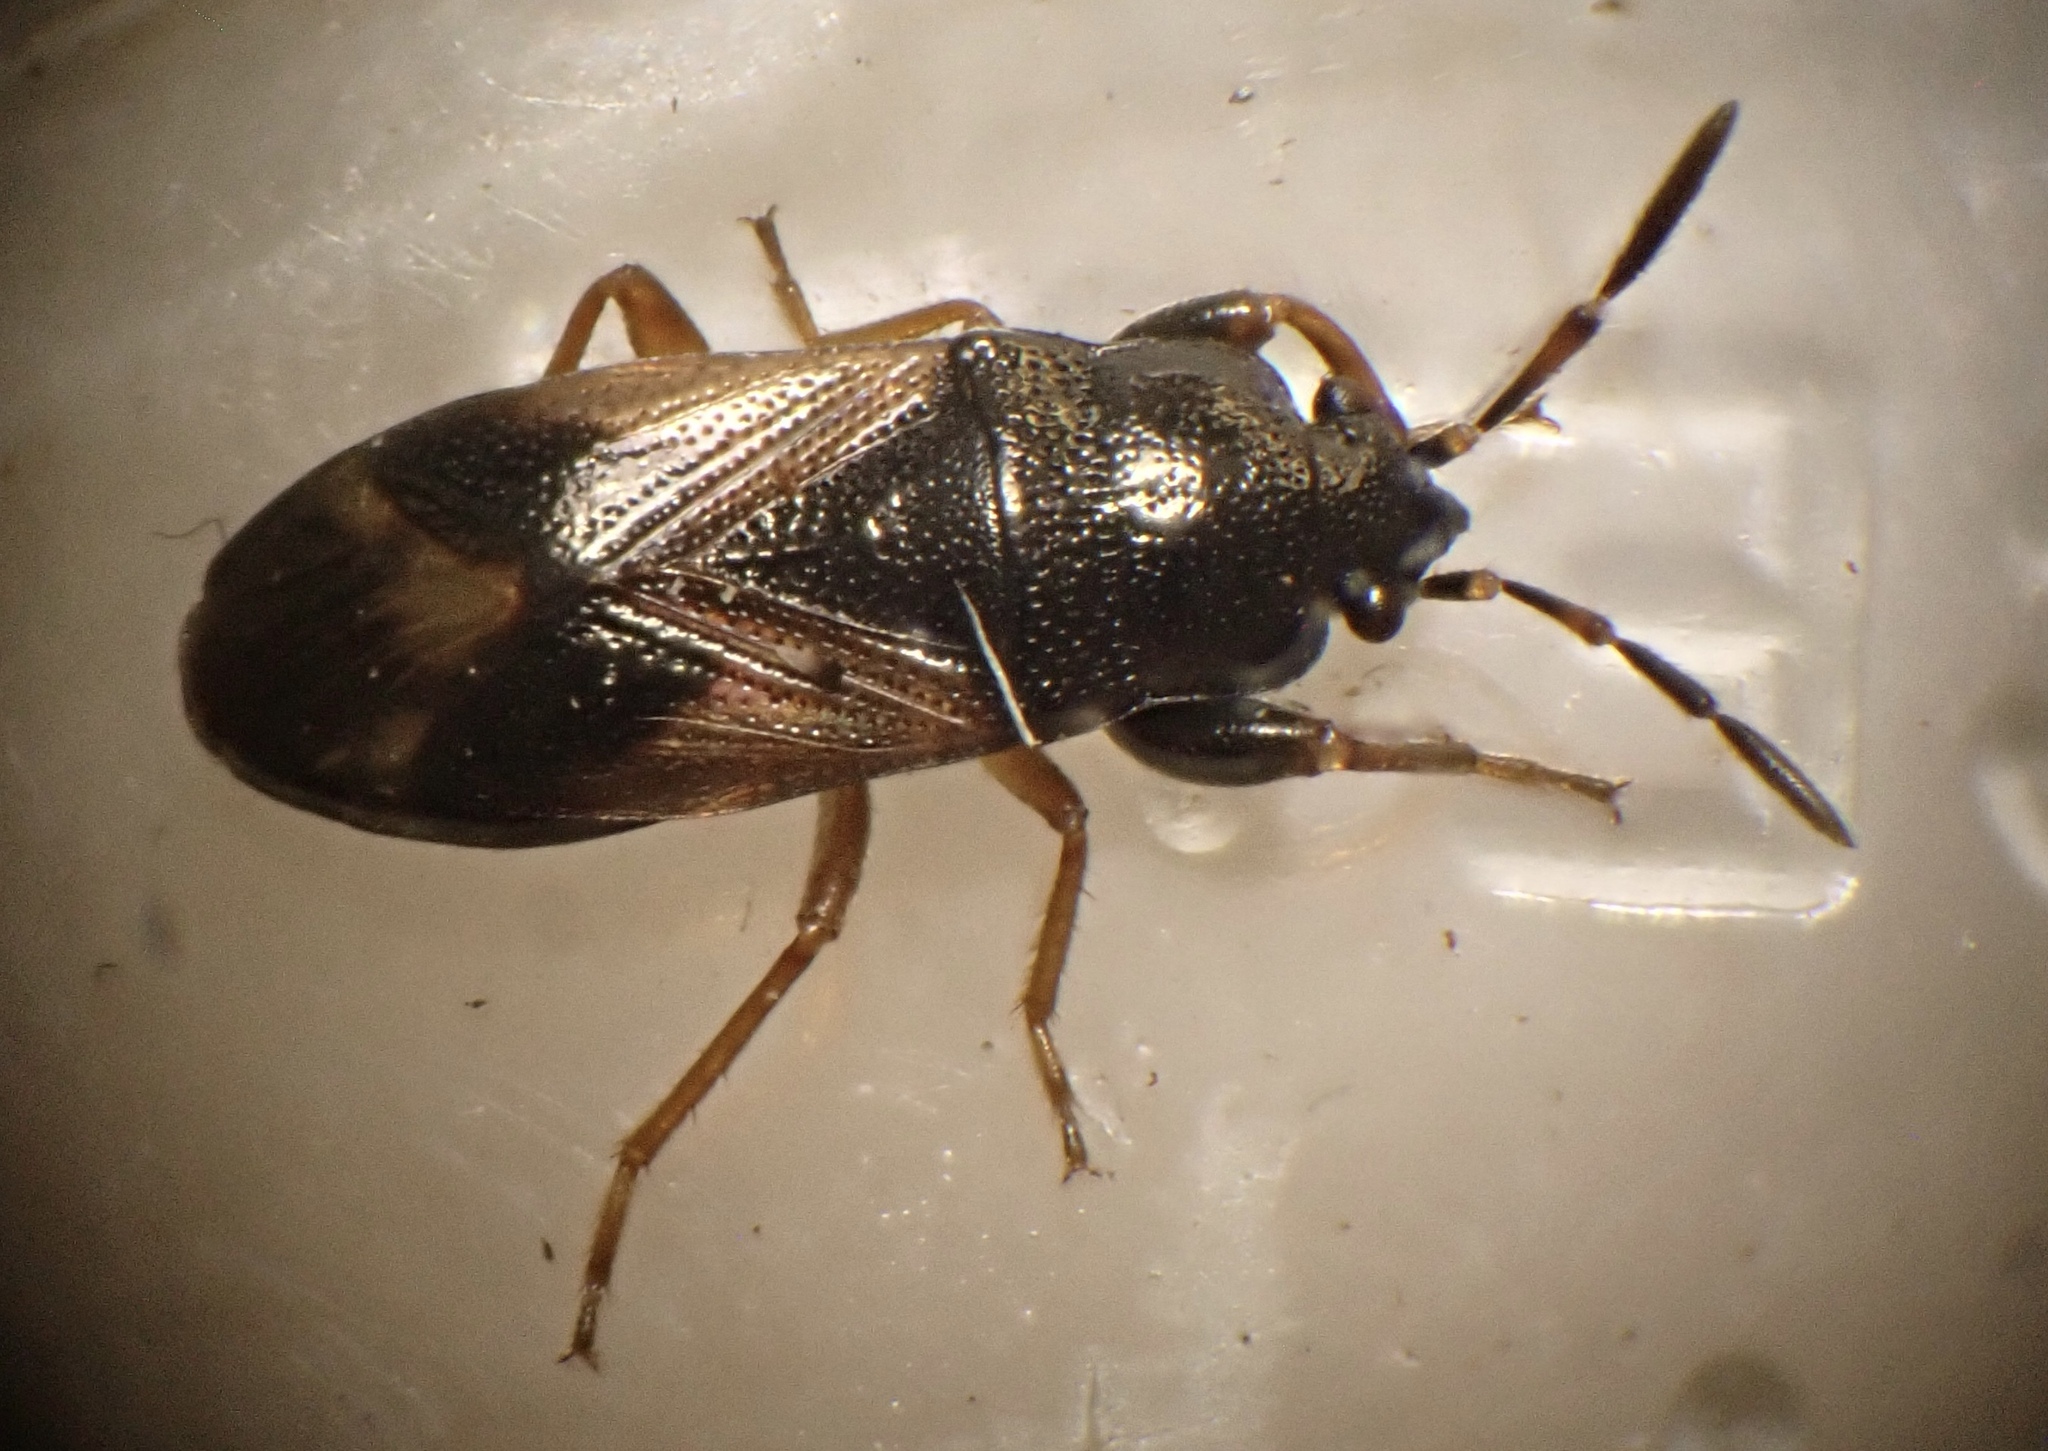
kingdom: Animalia
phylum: Arthropoda
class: Insecta
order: Hemiptera
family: Rhyparochromidae
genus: Megalonotus
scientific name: Megalonotus praetextatus
